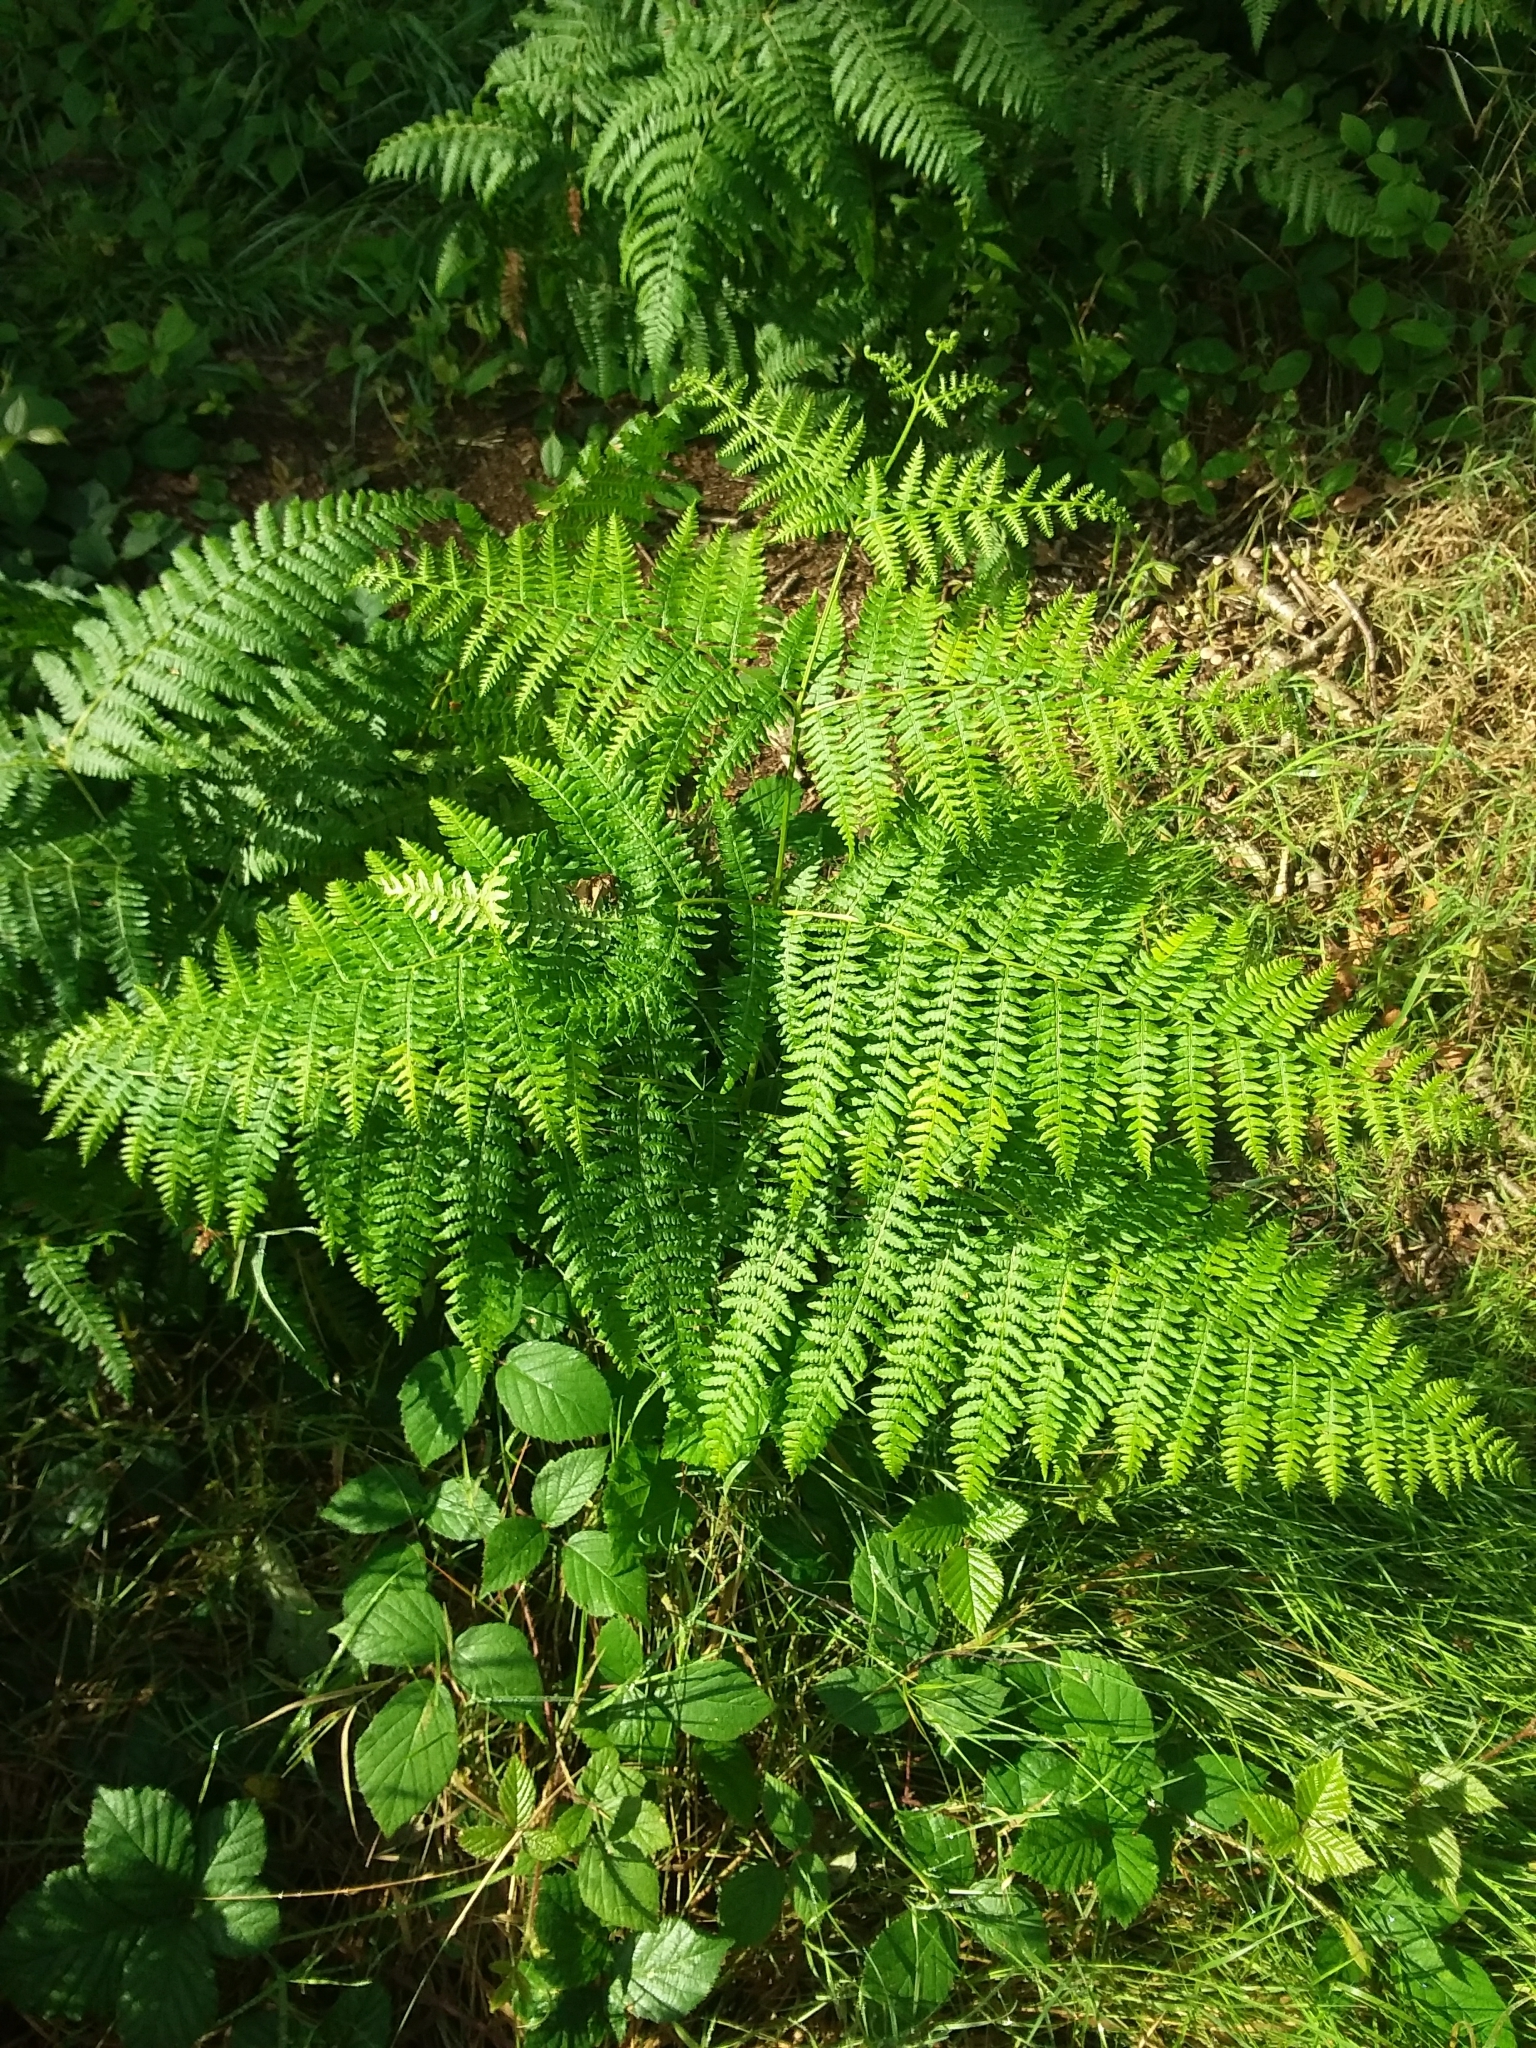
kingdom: Plantae
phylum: Tracheophyta
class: Polypodiopsida
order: Polypodiales
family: Dennstaedtiaceae
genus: Pteridium
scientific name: Pteridium aquilinum
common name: Bracken
